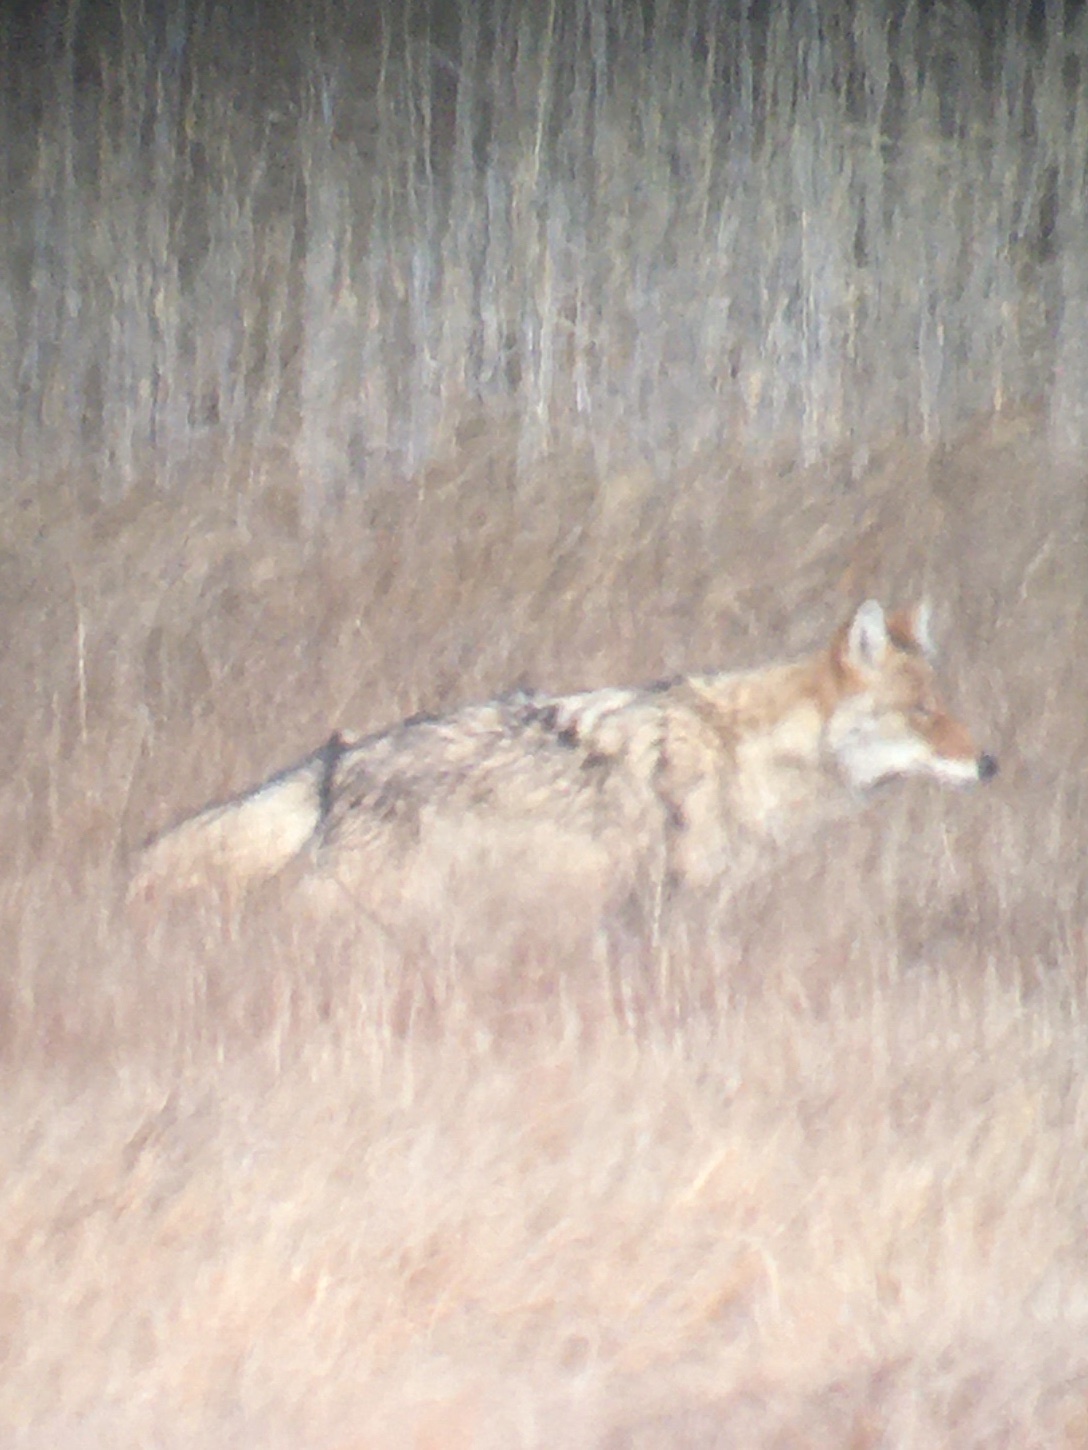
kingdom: Animalia
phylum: Chordata
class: Mammalia
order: Carnivora
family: Canidae
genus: Canis
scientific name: Canis latrans
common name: Coyote
